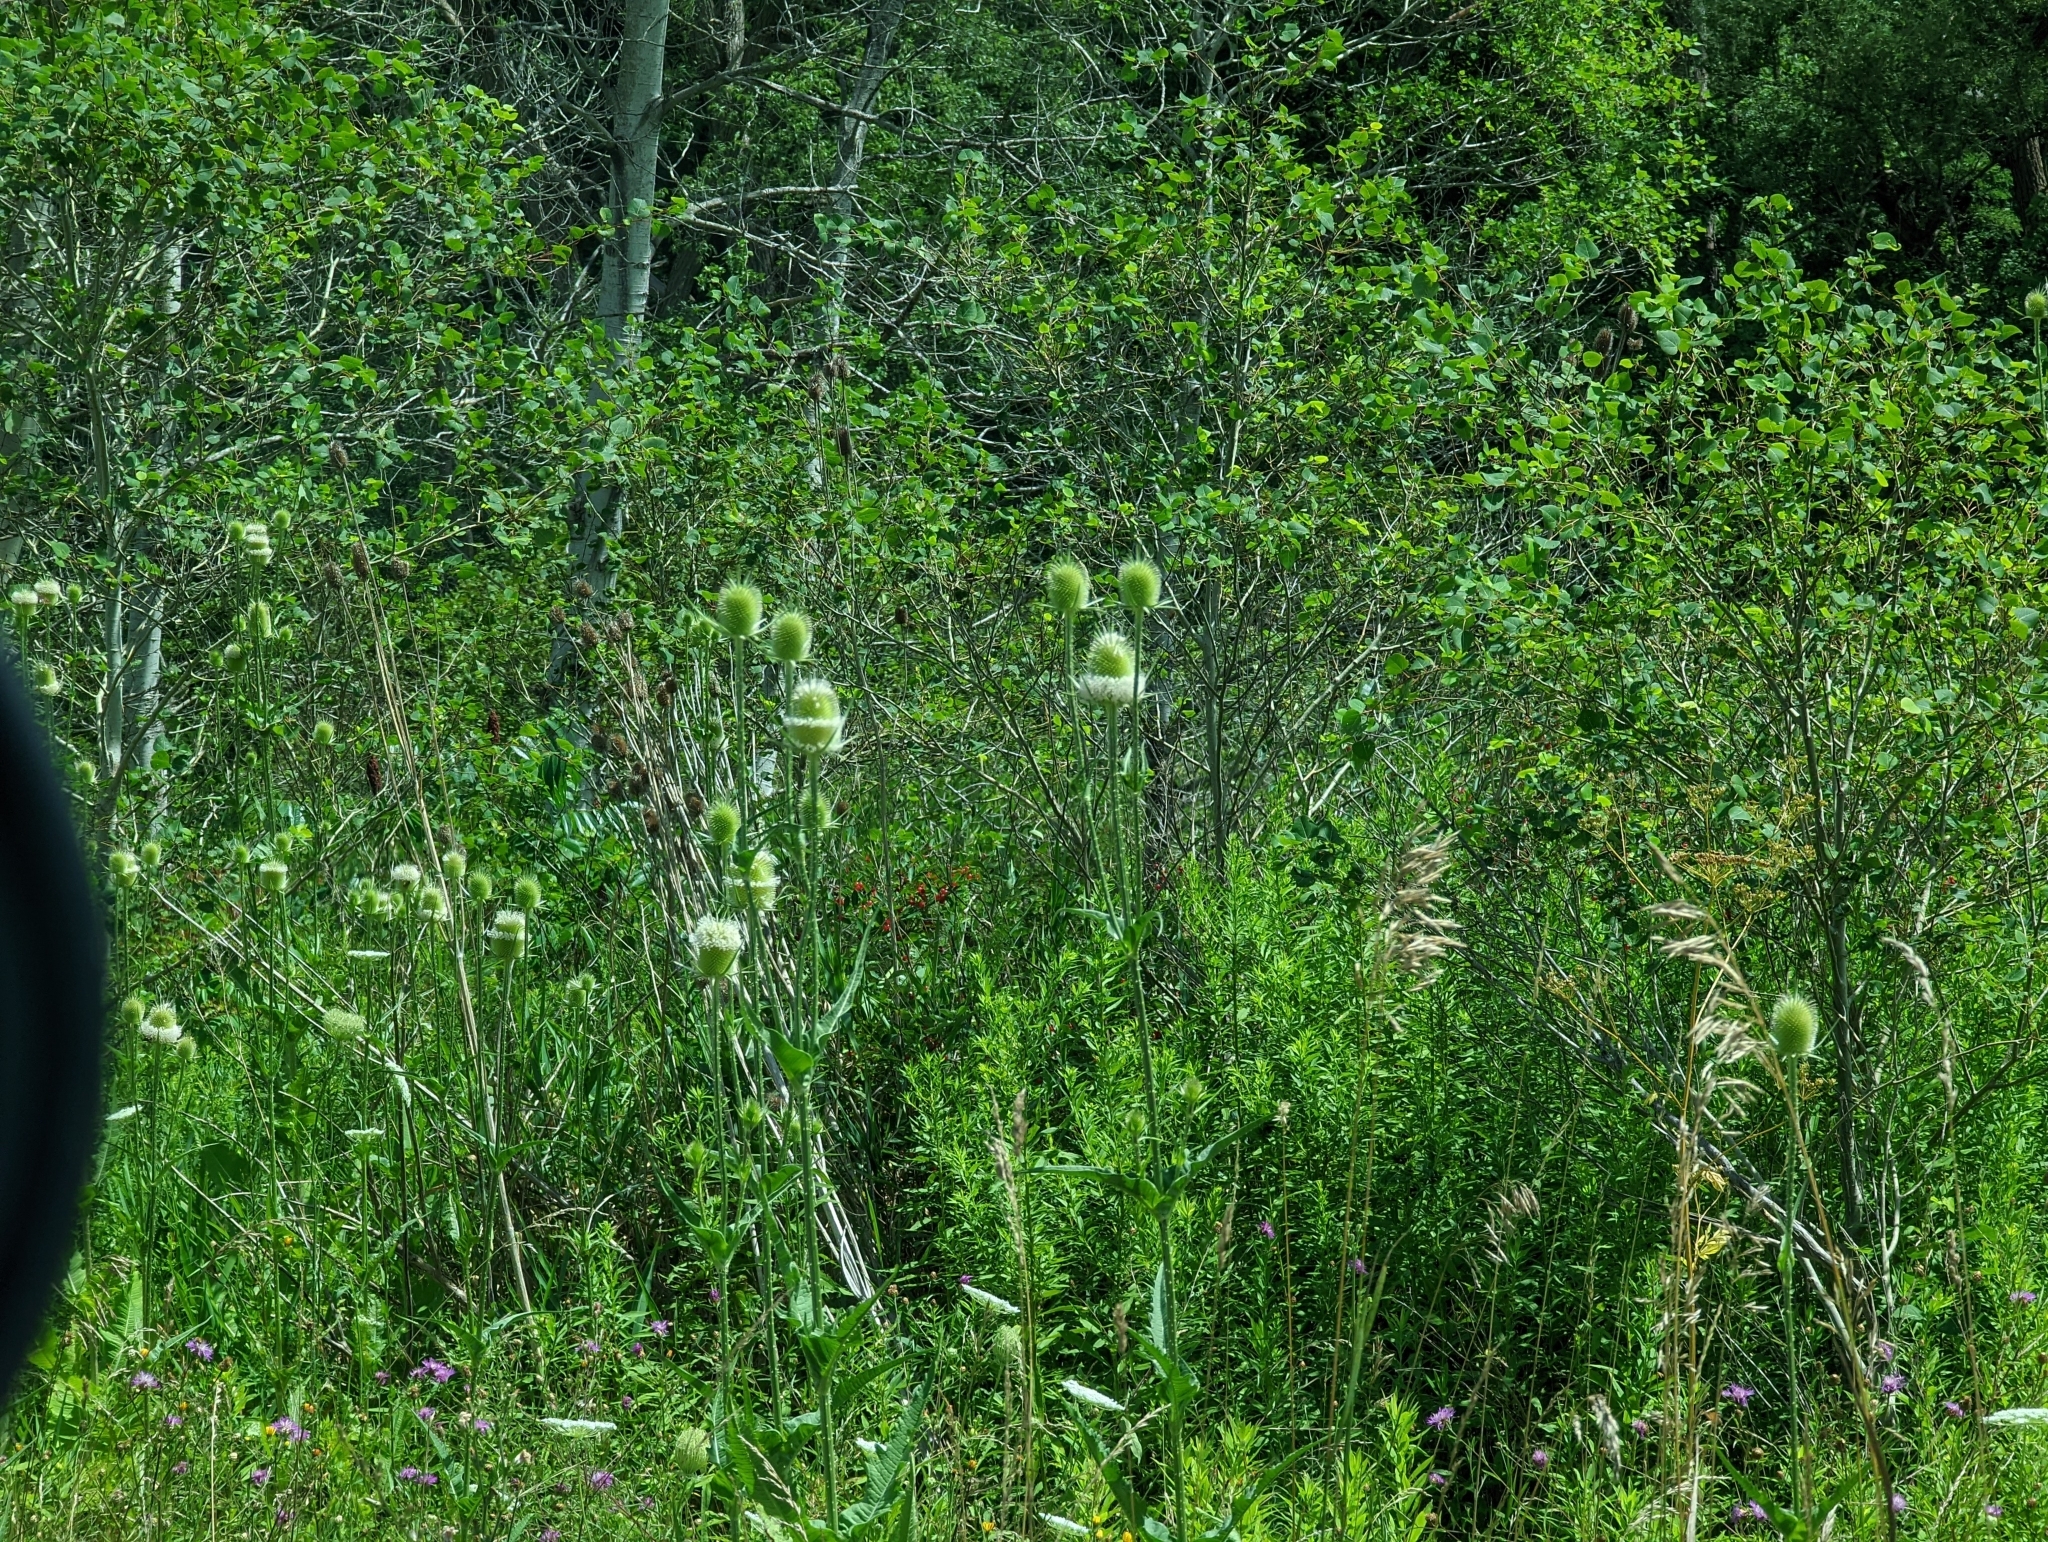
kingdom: Plantae
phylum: Tracheophyta
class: Magnoliopsida
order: Dipsacales
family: Caprifoliaceae
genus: Dipsacus
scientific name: Dipsacus laciniatus
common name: Cut-leaved teasel
